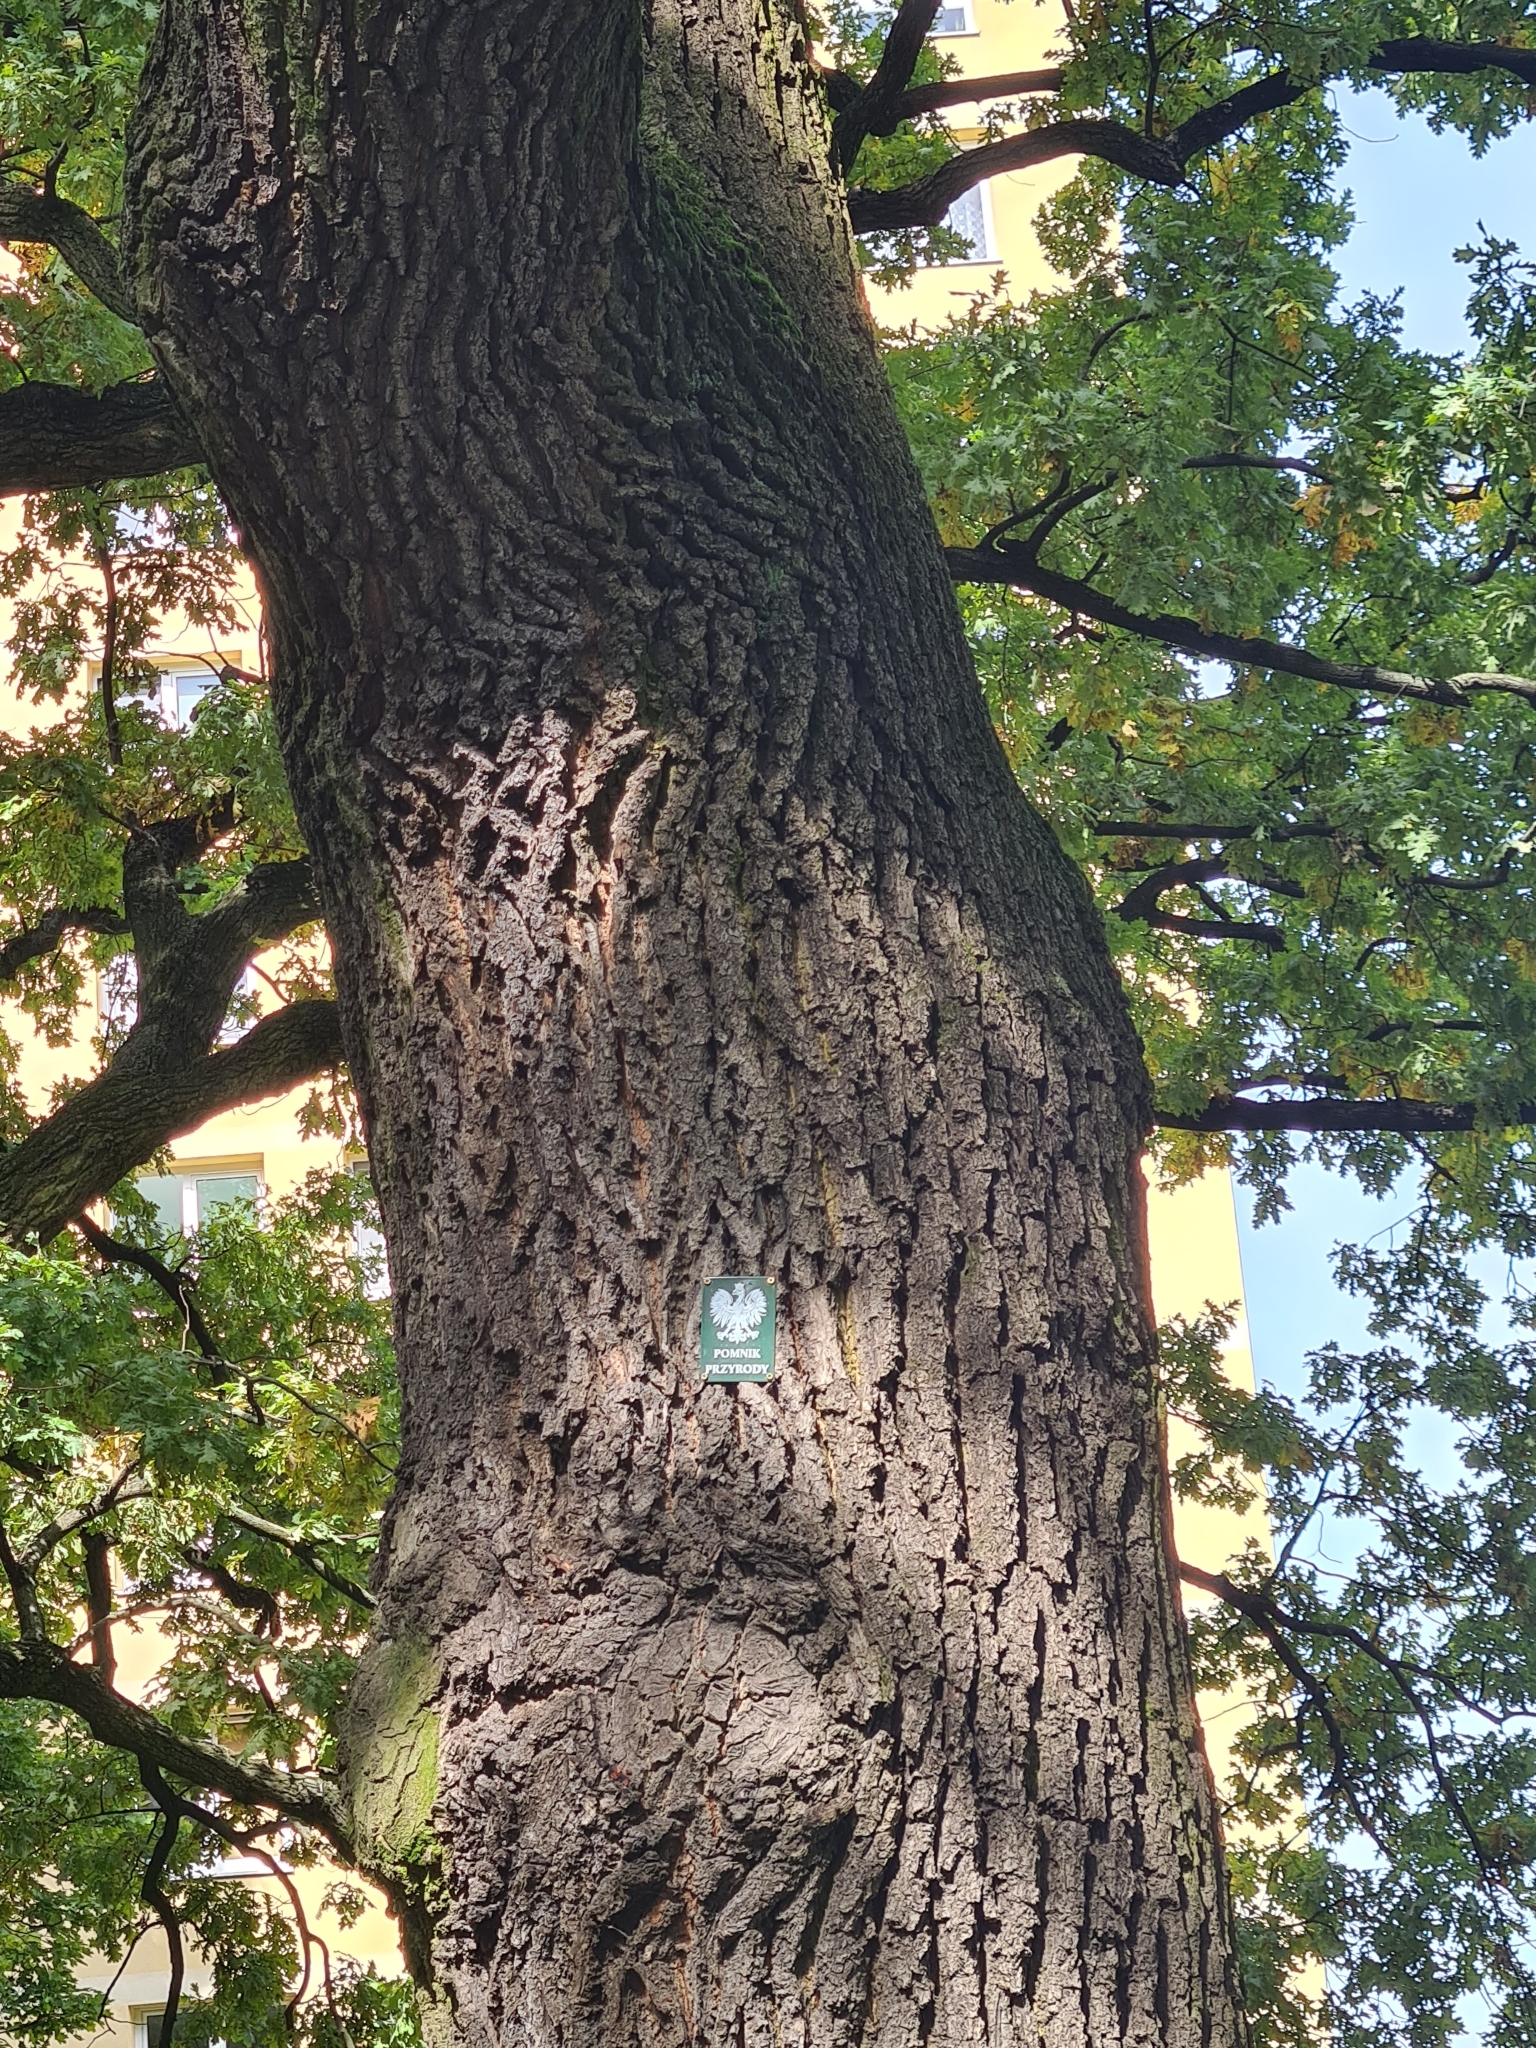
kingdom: Plantae
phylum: Tracheophyta
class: Magnoliopsida
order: Fagales
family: Fagaceae
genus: Quercus
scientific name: Quercus robur
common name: Pedunculate oak
